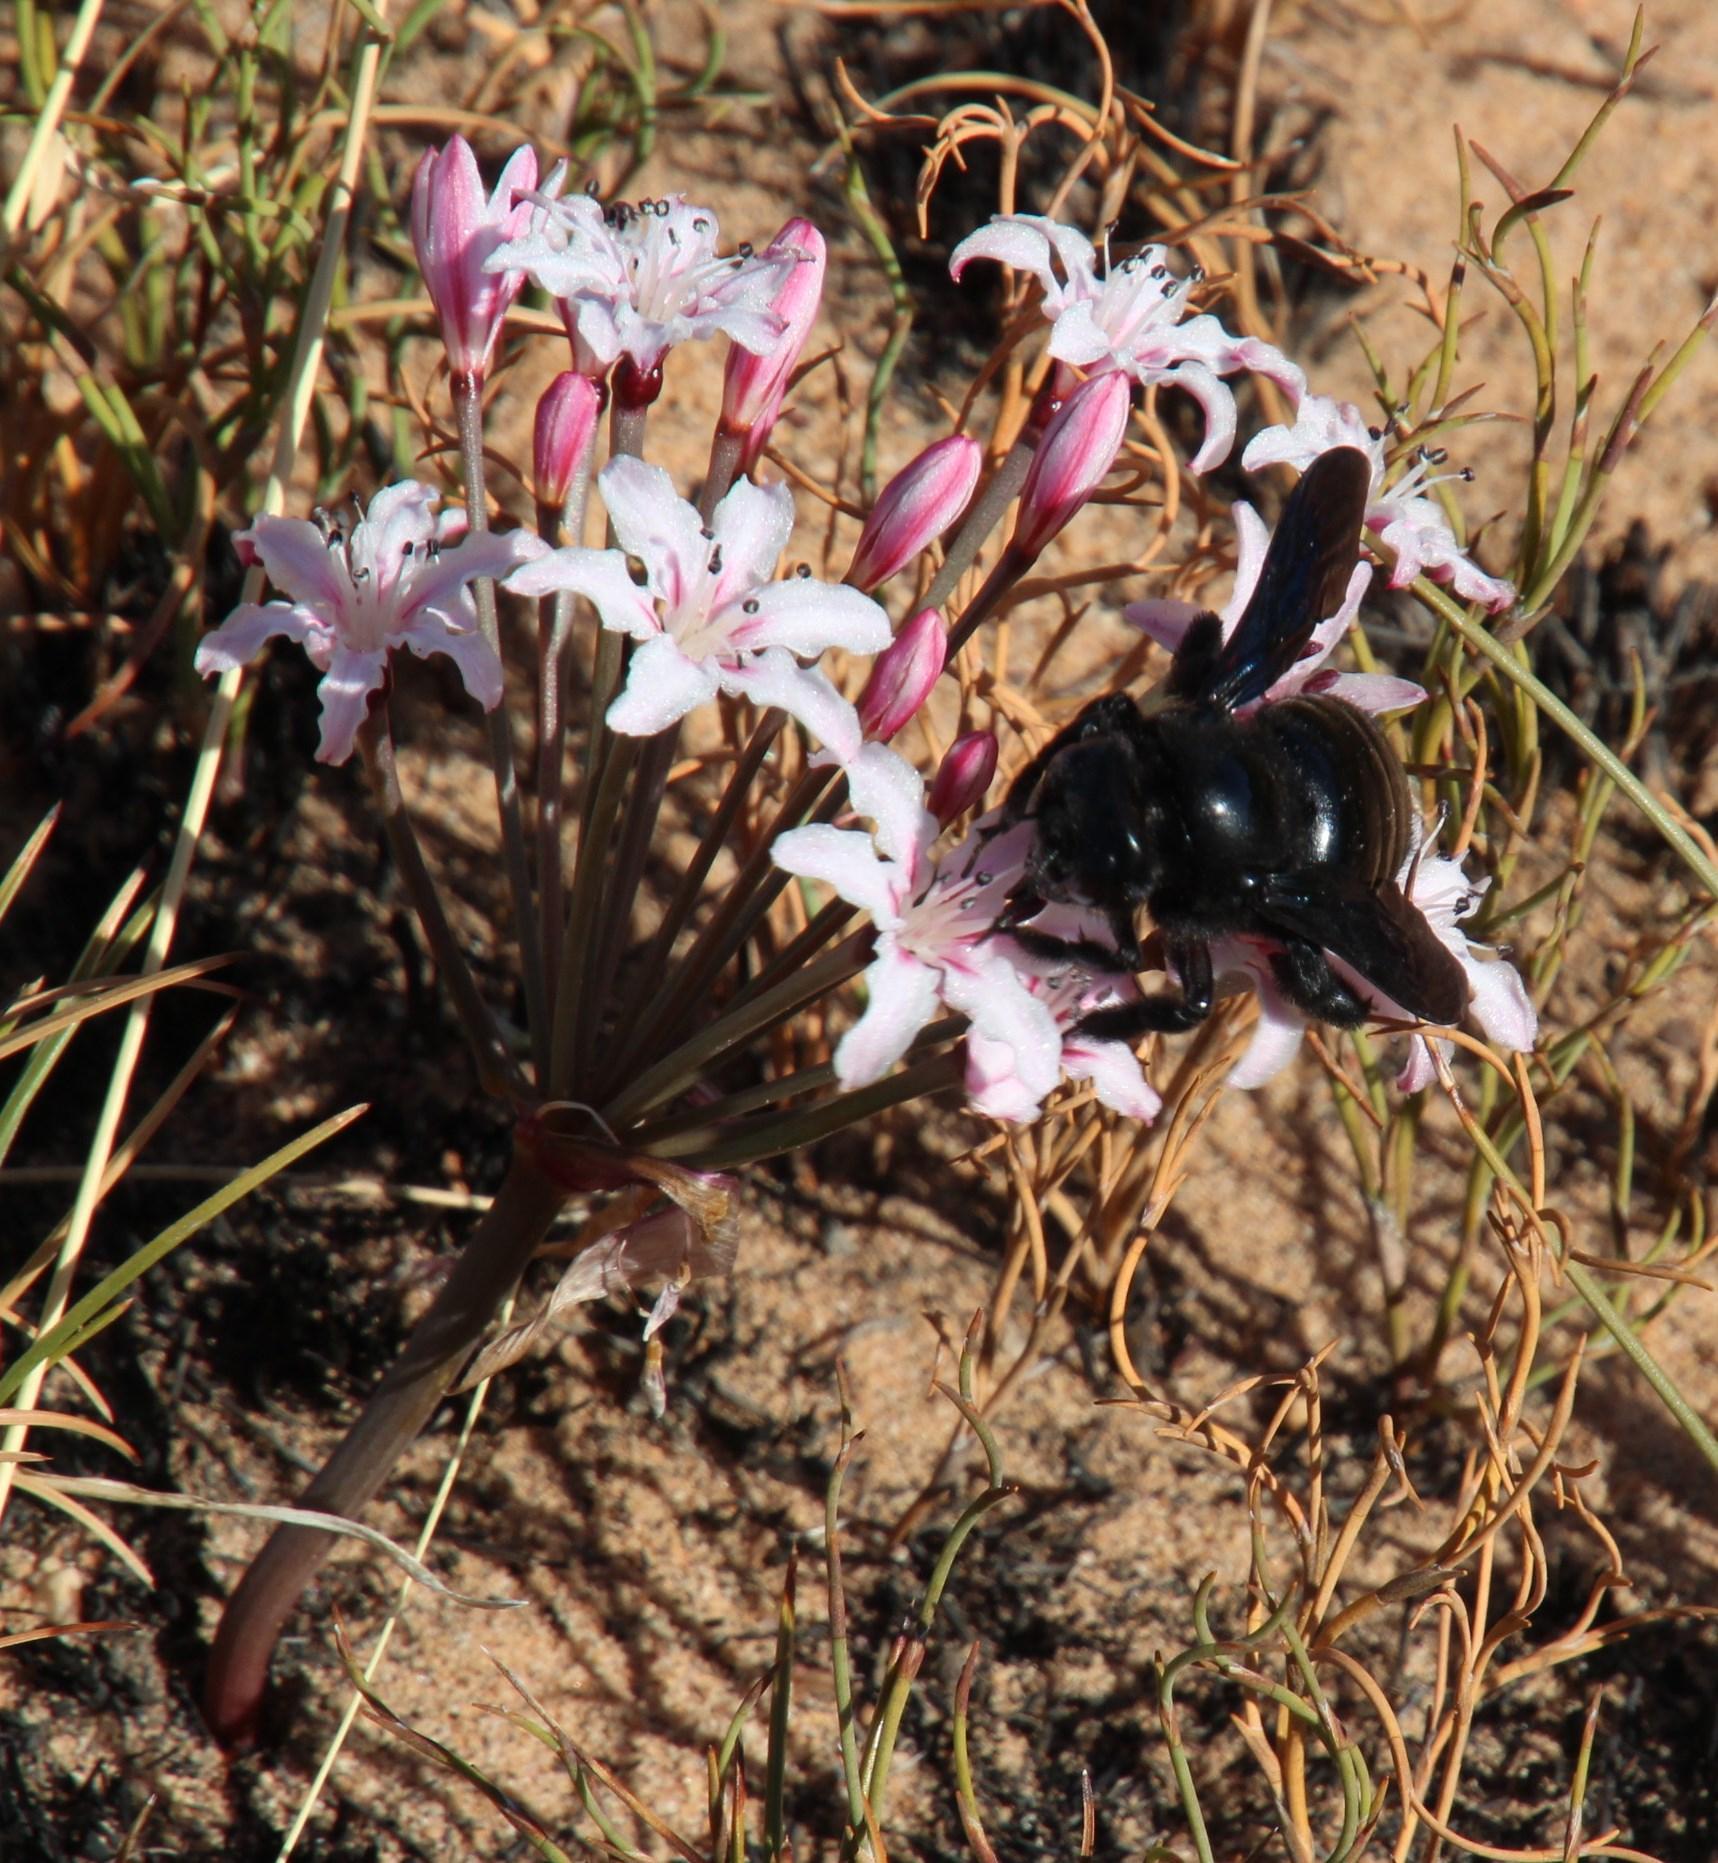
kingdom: Plantae
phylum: Tracheophyta
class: Liliopsida
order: Asparagales
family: Amaryllidaceae
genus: Hessea
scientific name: Hessea monticola
